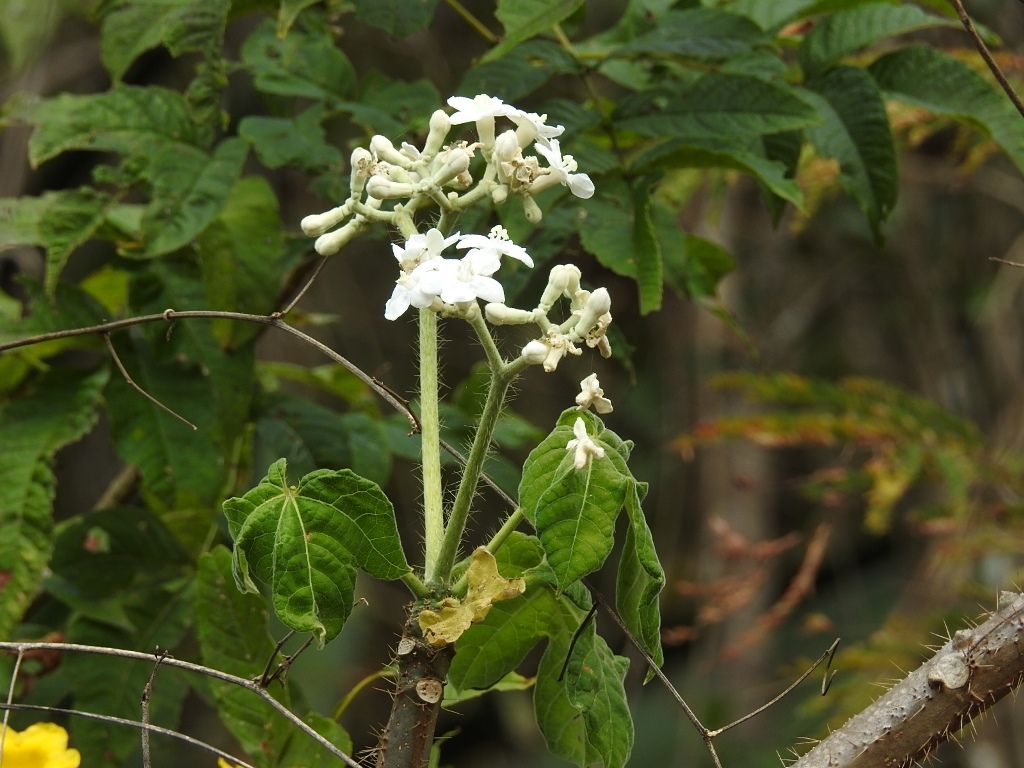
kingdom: Plantae
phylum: Tracheophyta
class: Magnoliopsida
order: Malpighiales
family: Euphorbiaceae
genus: Cnidoscolus
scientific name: Cnidoscolus multilobus
